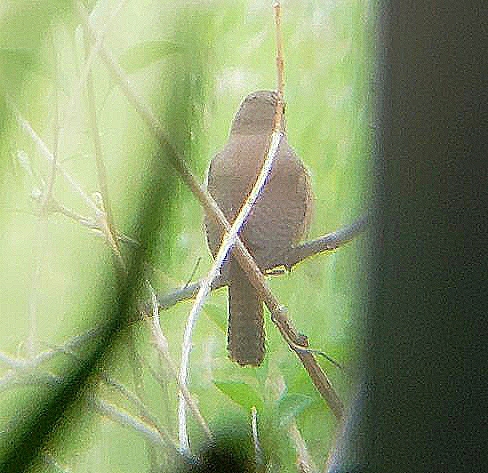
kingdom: Animalia
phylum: Chordata
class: Aves
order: Passeriformes
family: Troglodytidae
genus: Troglodytes
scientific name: Troglodytes aedon
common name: House wren
